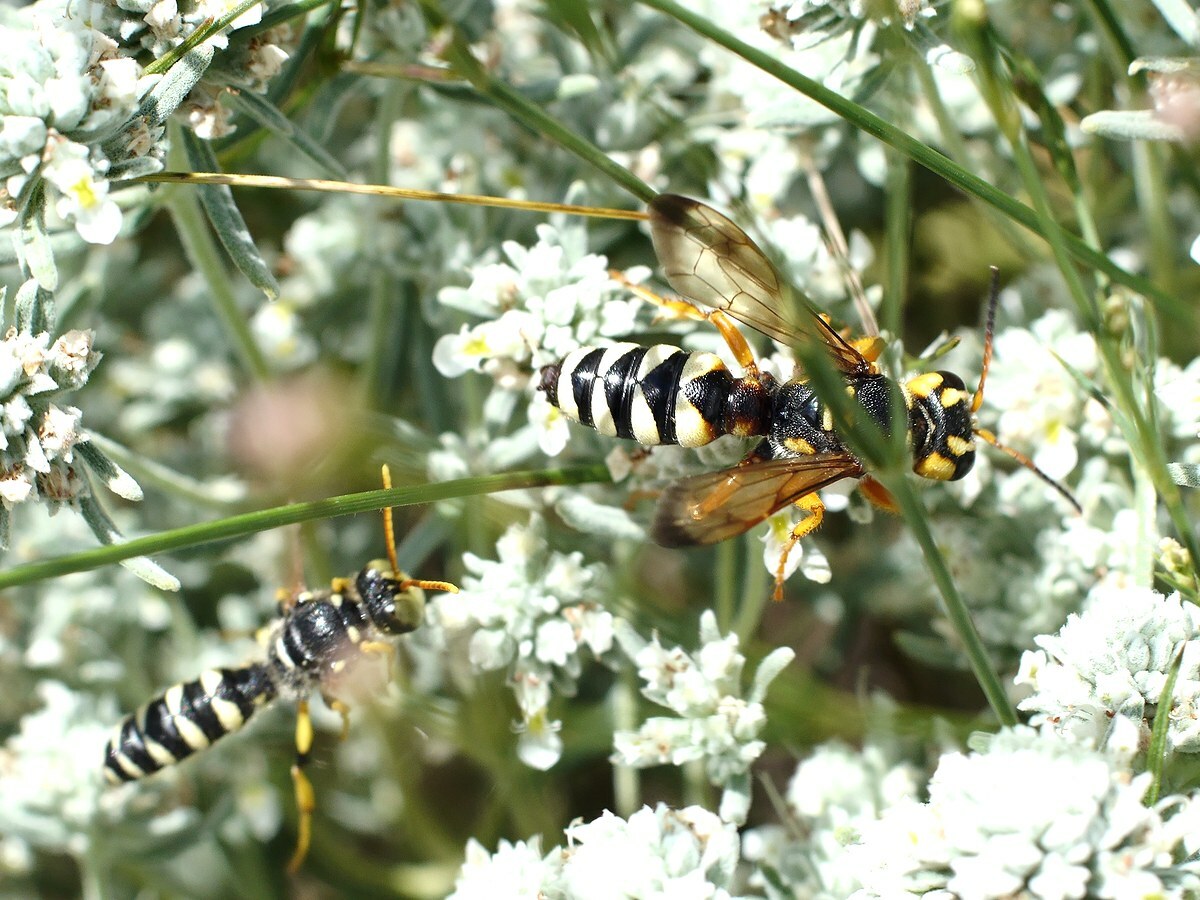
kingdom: Animalia
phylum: Arthropoda
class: Insecta
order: Hymenoptera
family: Crabronidae
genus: Cerceris
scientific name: Cerceris tuberculata
